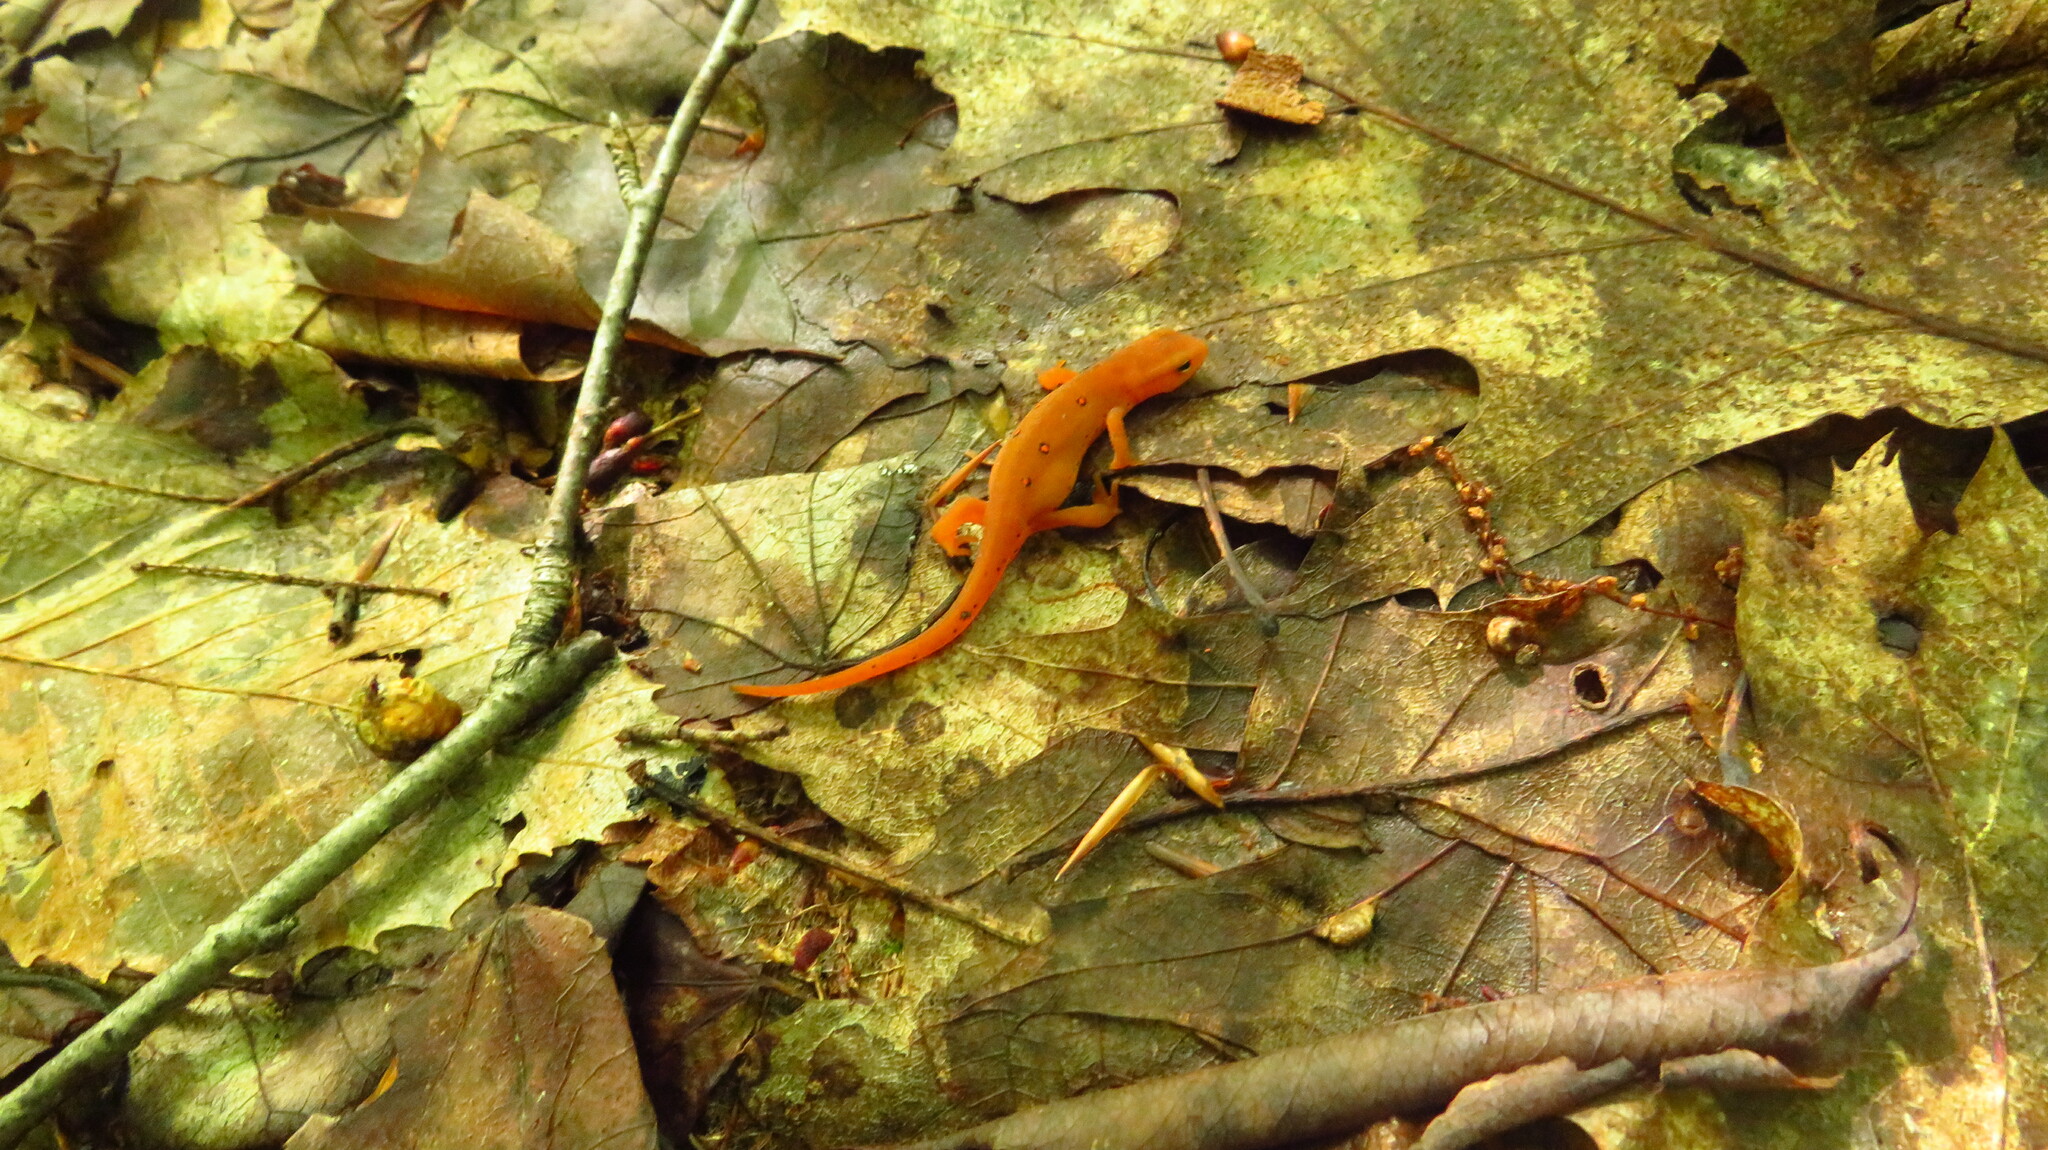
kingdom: Animalia
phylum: Chordata
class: Amphibia
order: Caudata
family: Salamandridae
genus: Notophthalmus
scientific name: Notophthalmus viridescens
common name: Eastern newt
